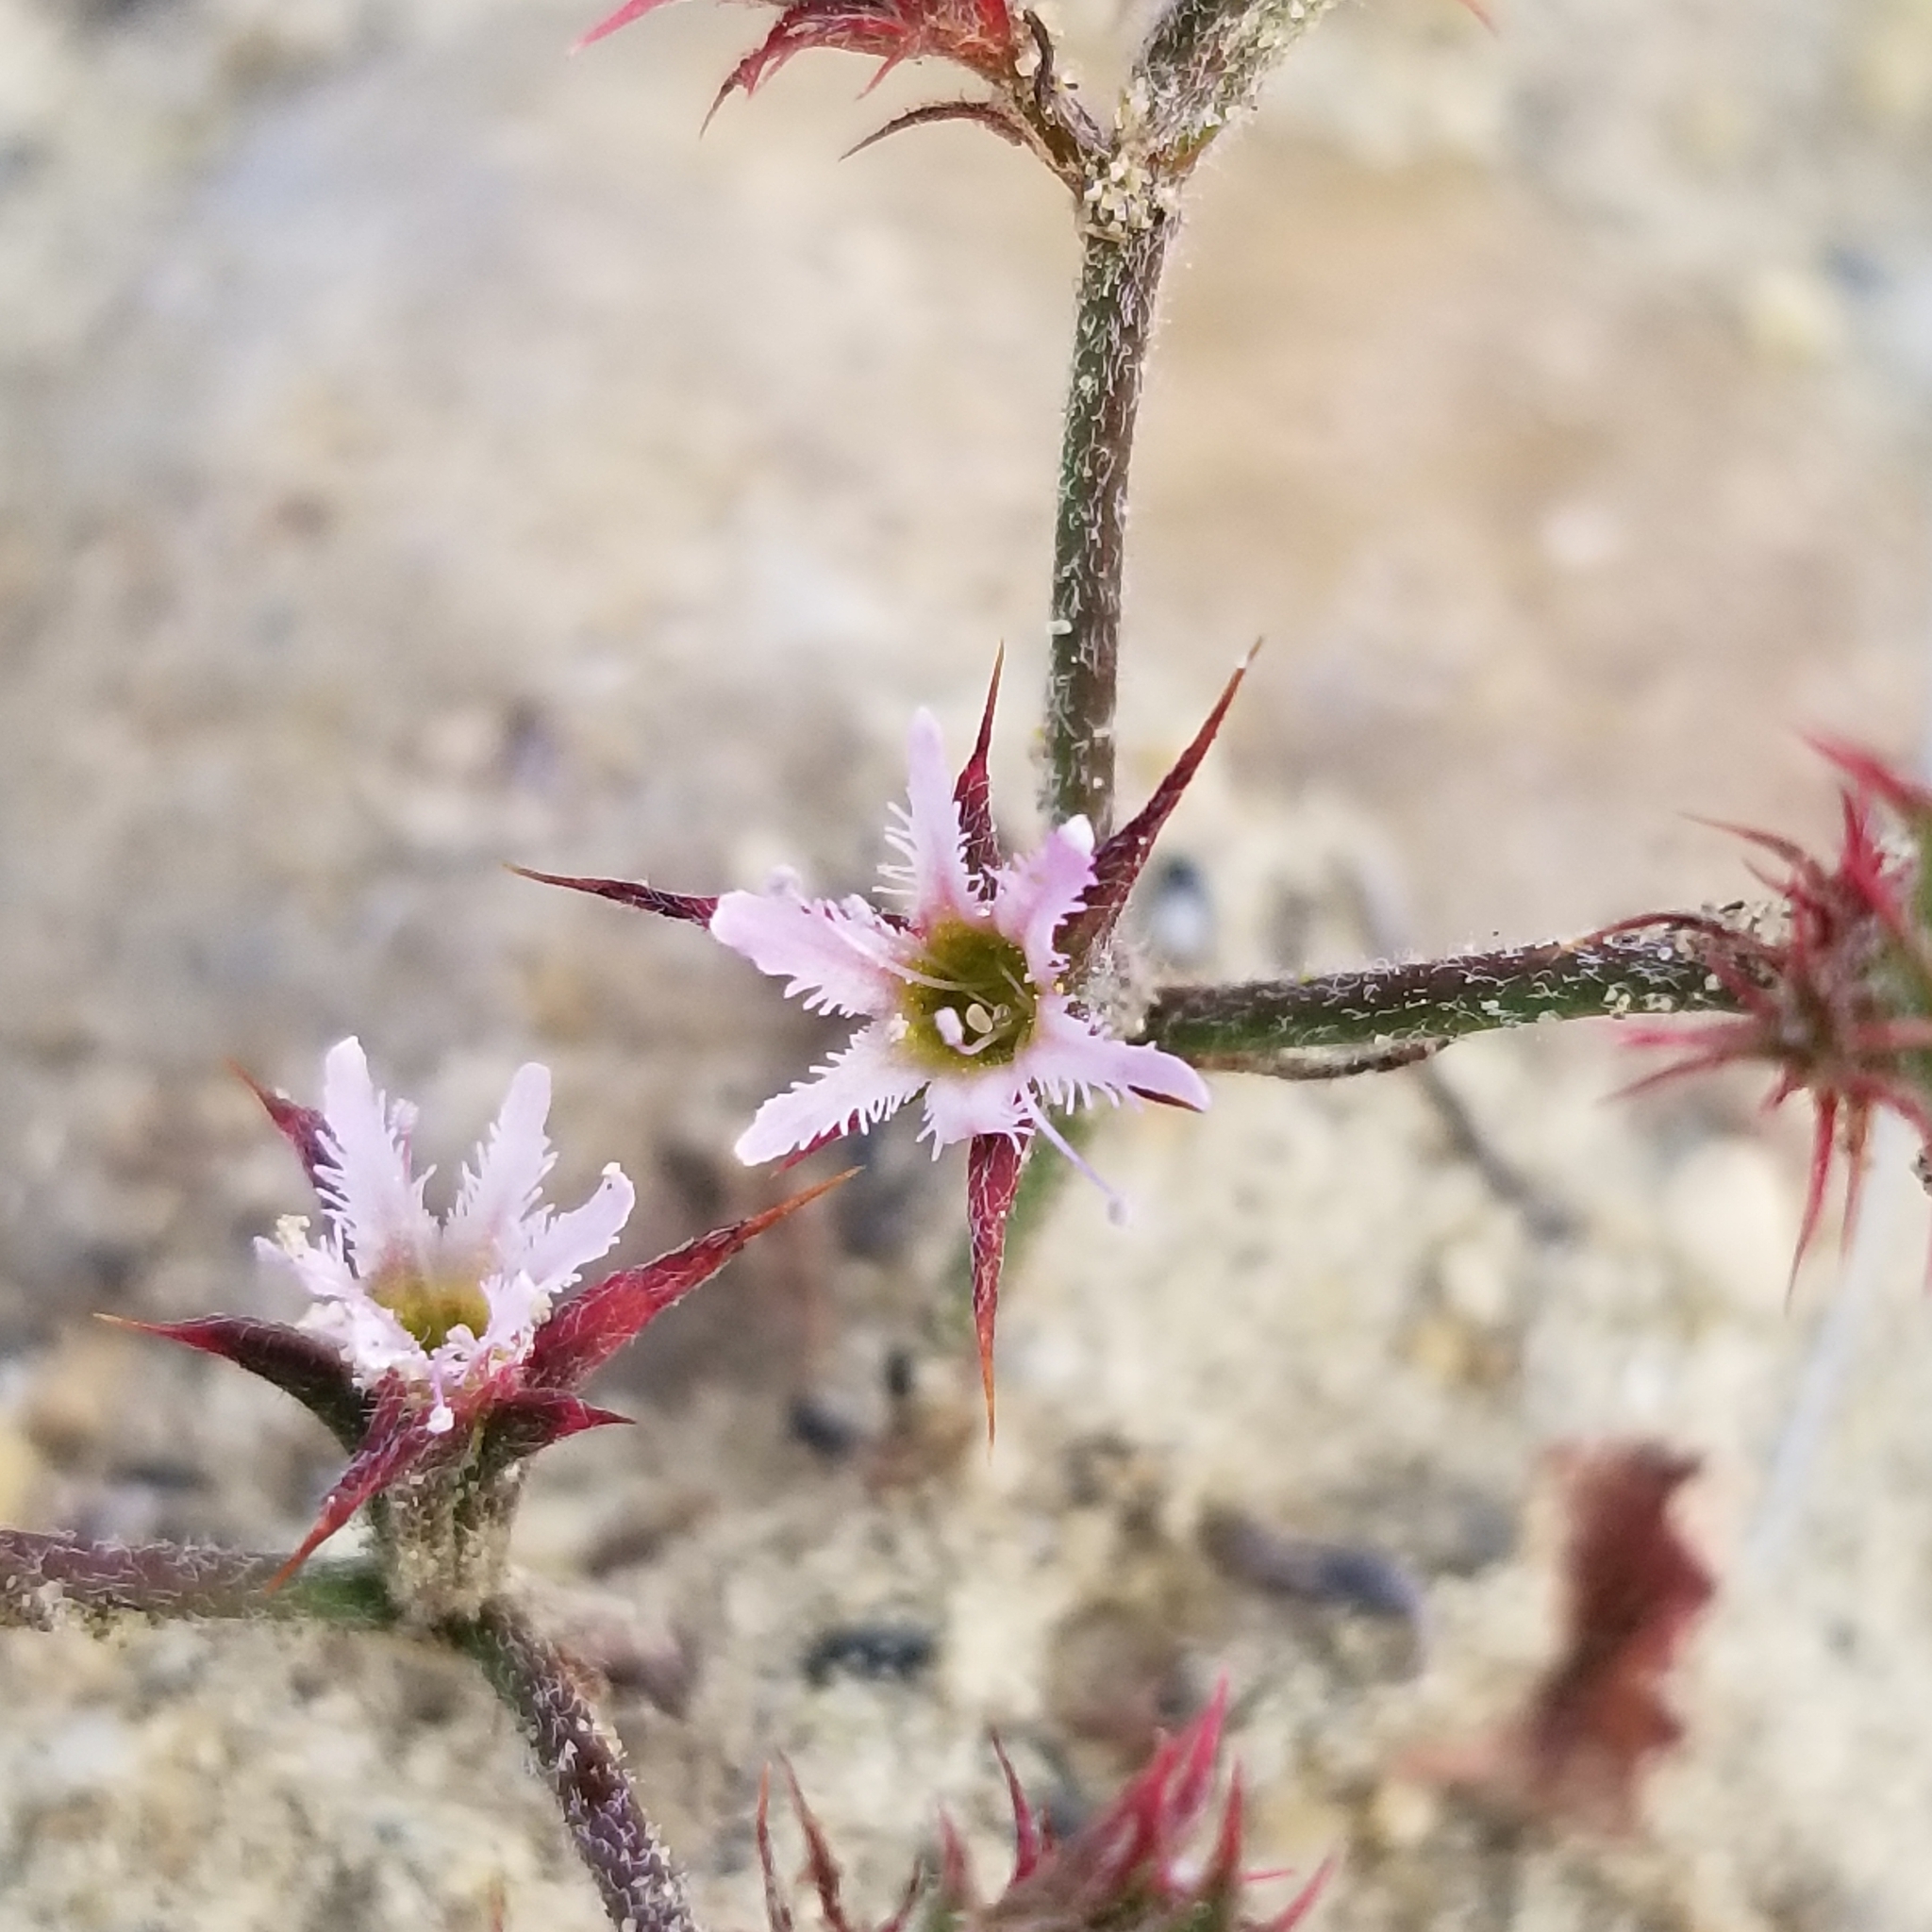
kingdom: Plantae
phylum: Tracheophyta
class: Magnoliopsida
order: Caryophyllales
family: Polygonaceae
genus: Chorizanthe
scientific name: Chorizanthe fimbriata
